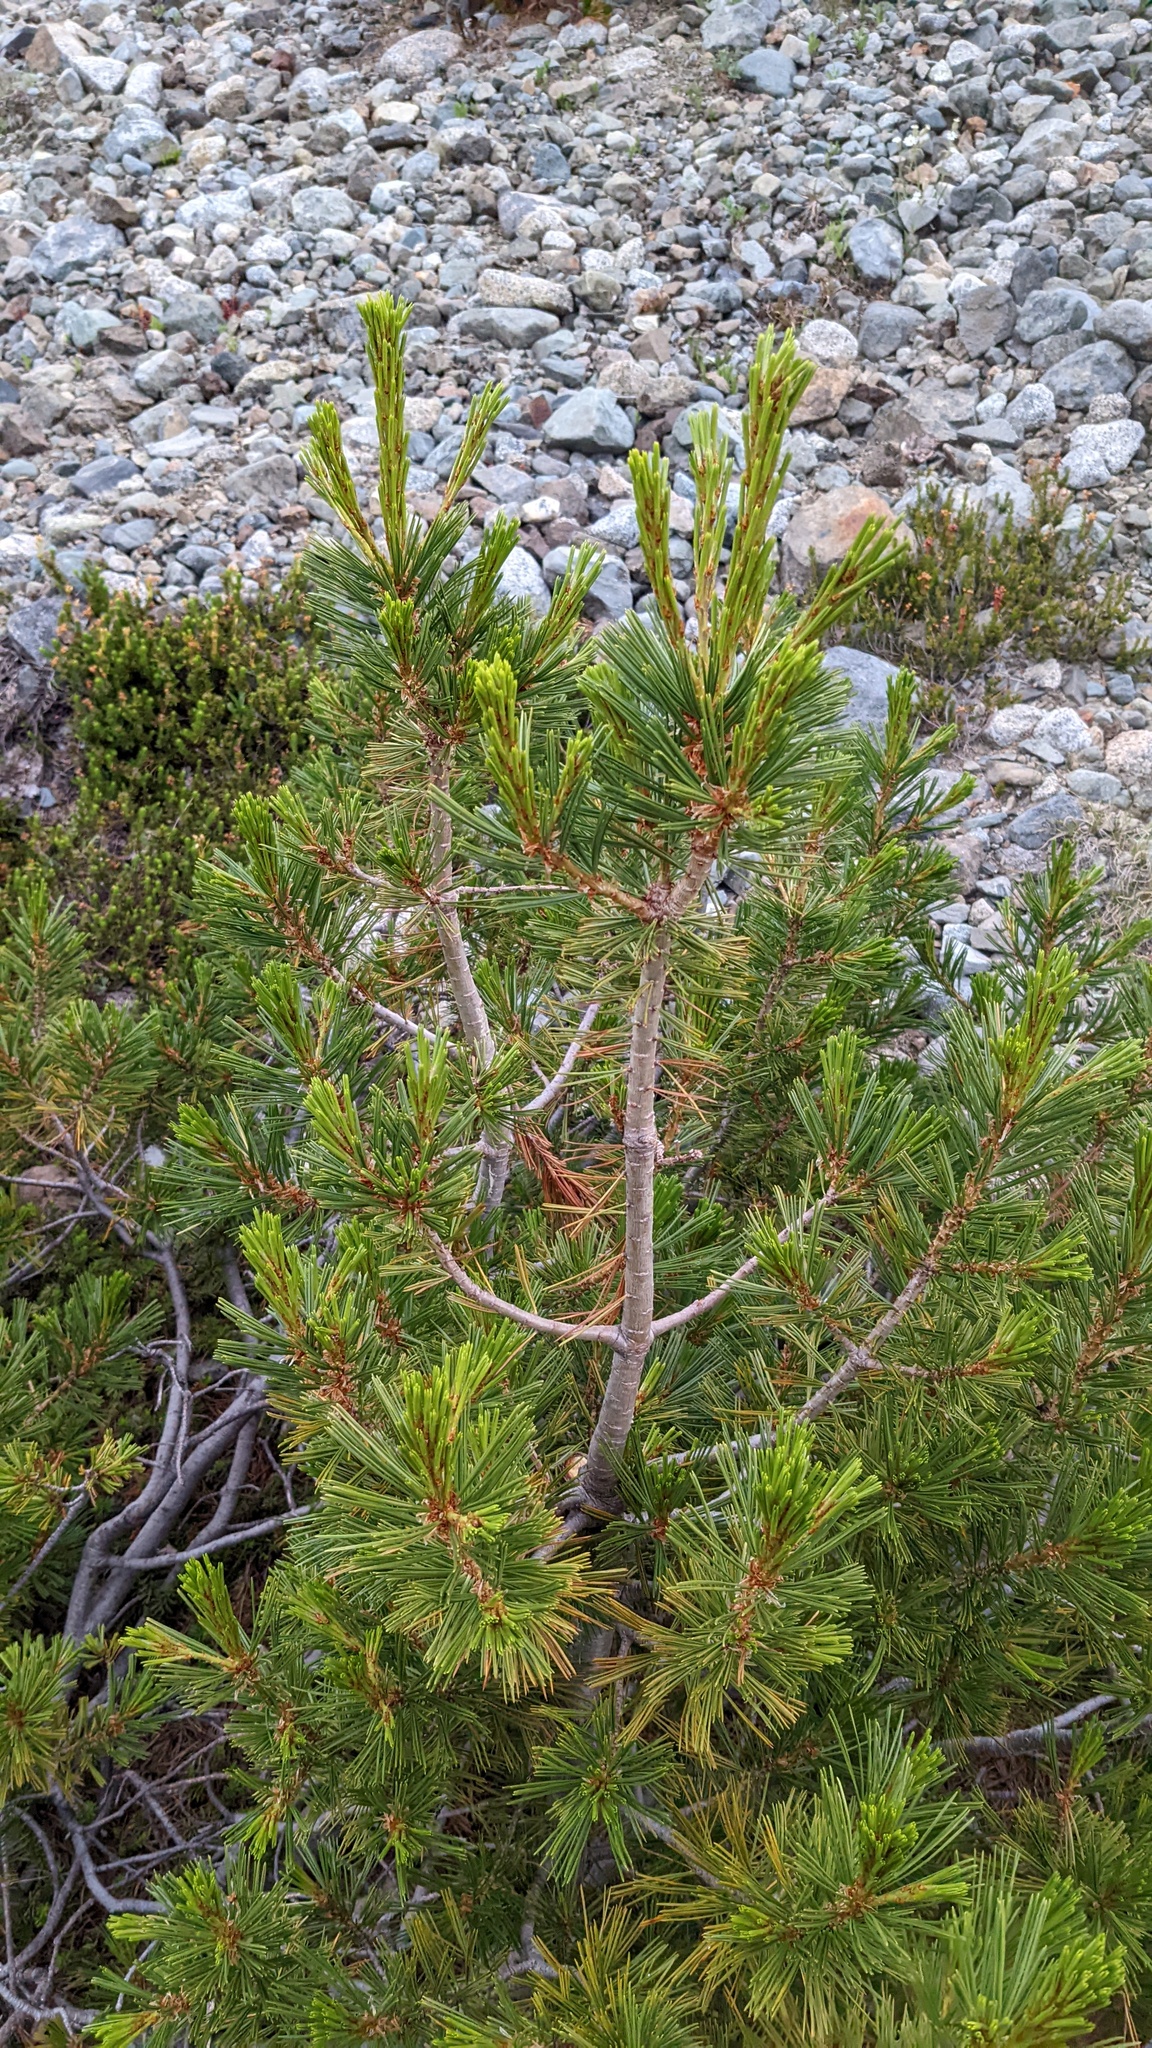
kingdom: Plantae
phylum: Tracheophyta
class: Pinopsida
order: Pinales
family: Pinaceae
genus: Pinus
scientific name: Pinus albicaulis
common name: Whitebark pine
